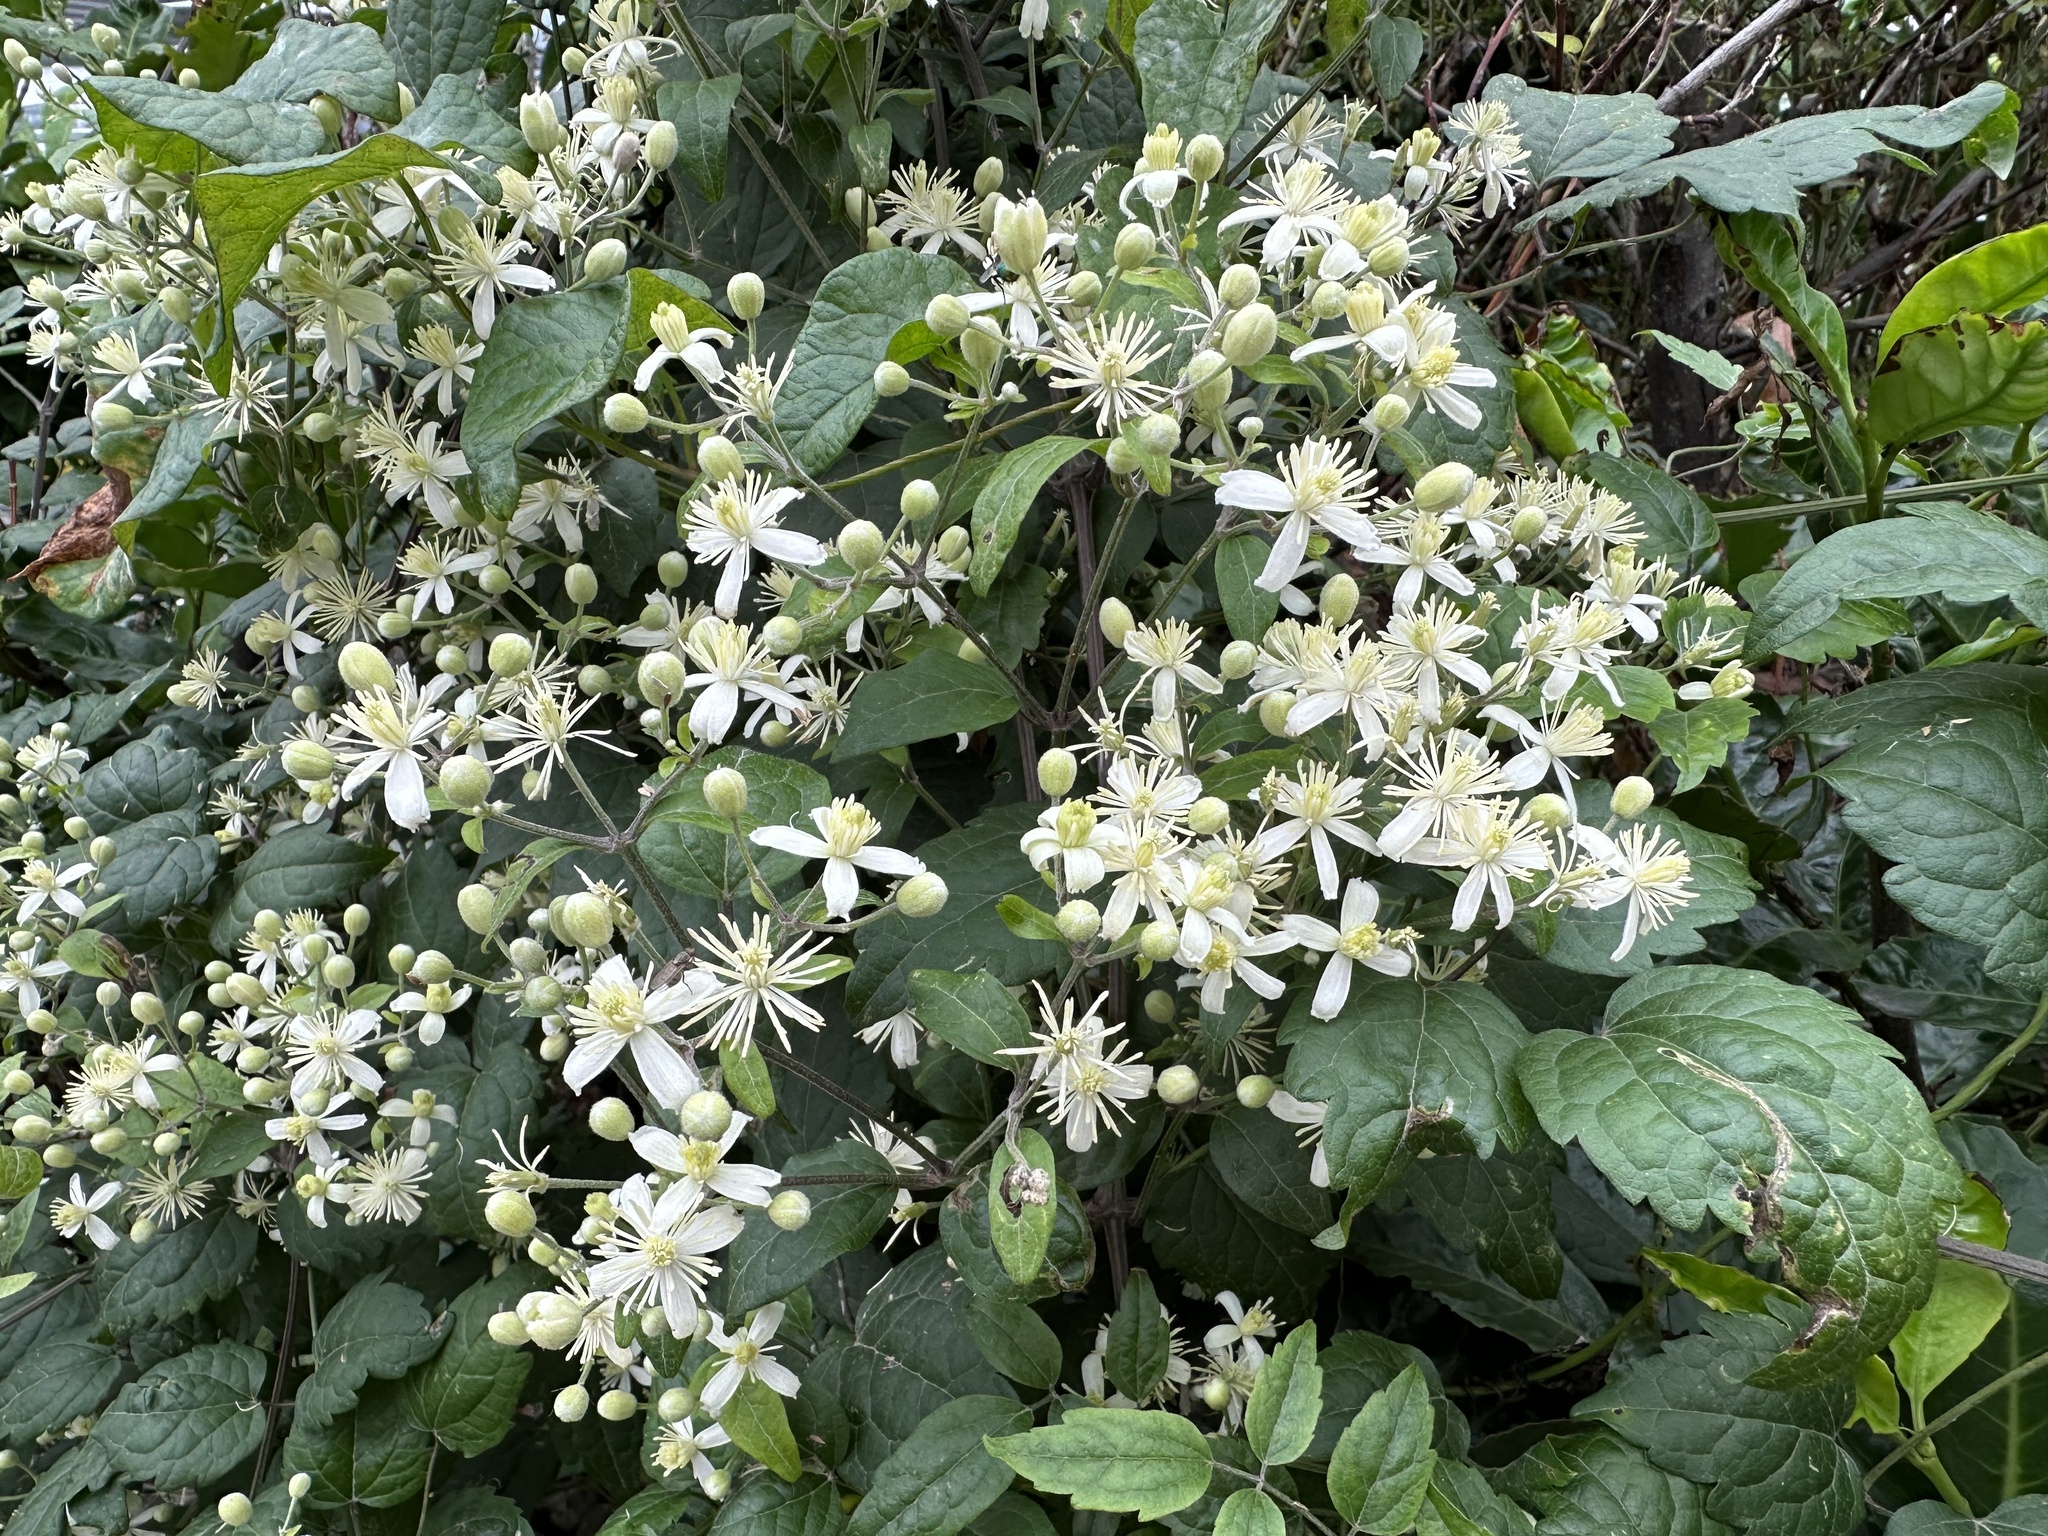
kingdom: Plantae
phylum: Tracheophyta
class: Magnoliopsida
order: Ranunculales
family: Ranunculaceae
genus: Clematis
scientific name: Clematis vitalba
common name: Evergreen clematis
